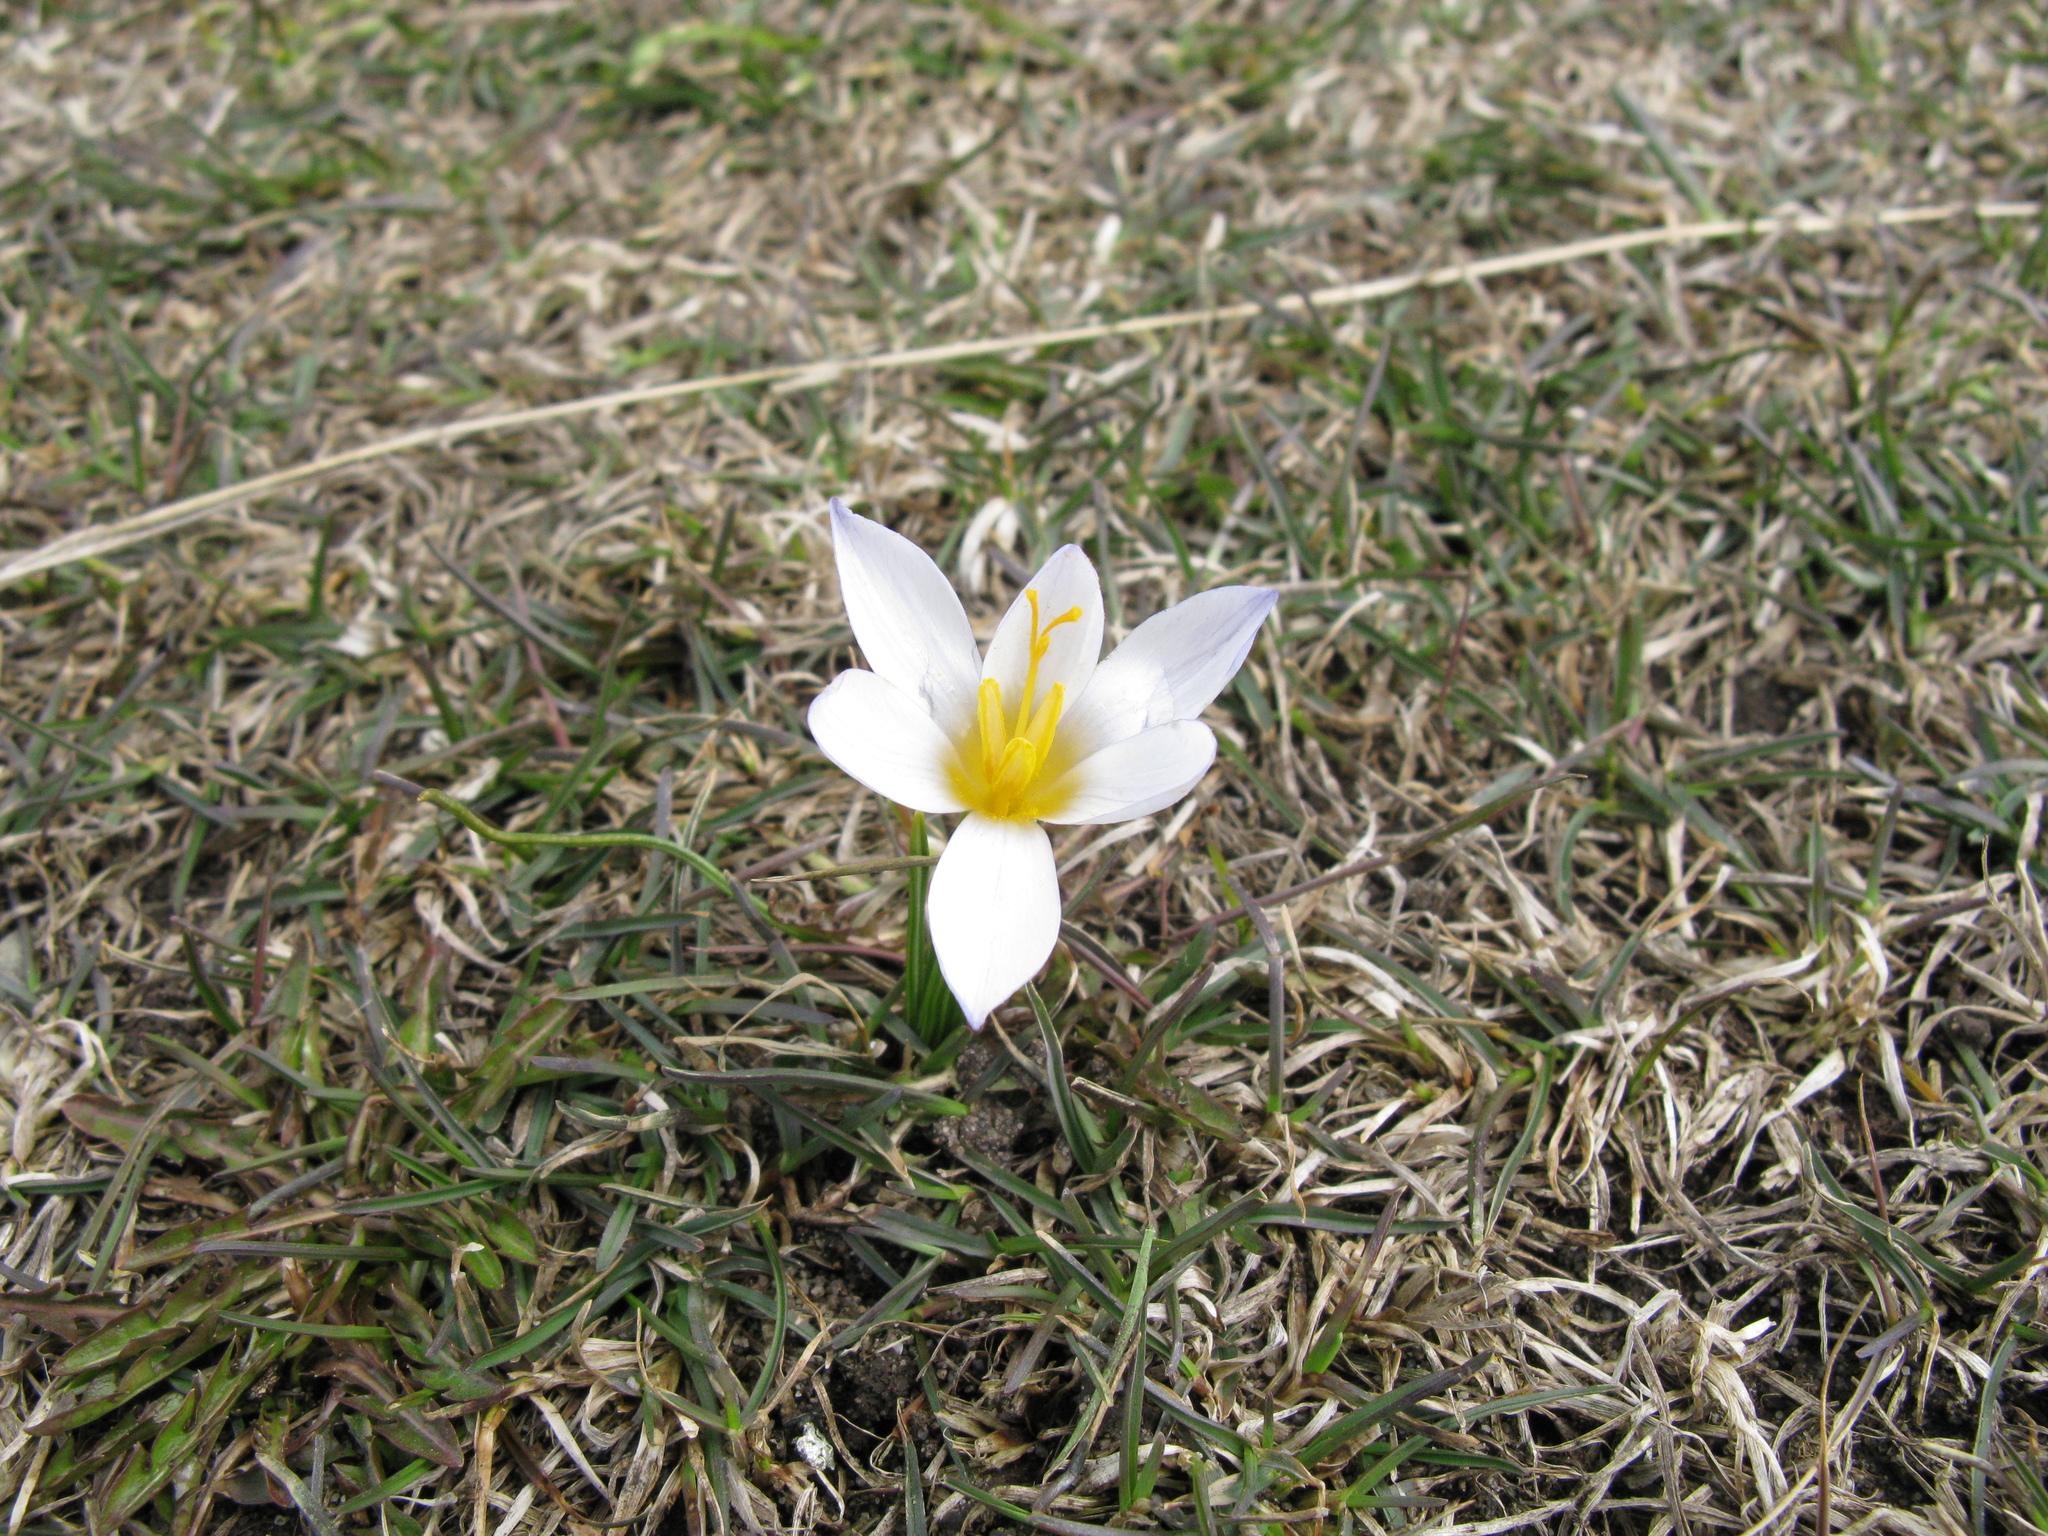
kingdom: Plantae
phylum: Tracheophyta
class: Liliopsida
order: Asparagales
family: Iridaceae
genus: Crocus
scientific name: Crocus tauricus
